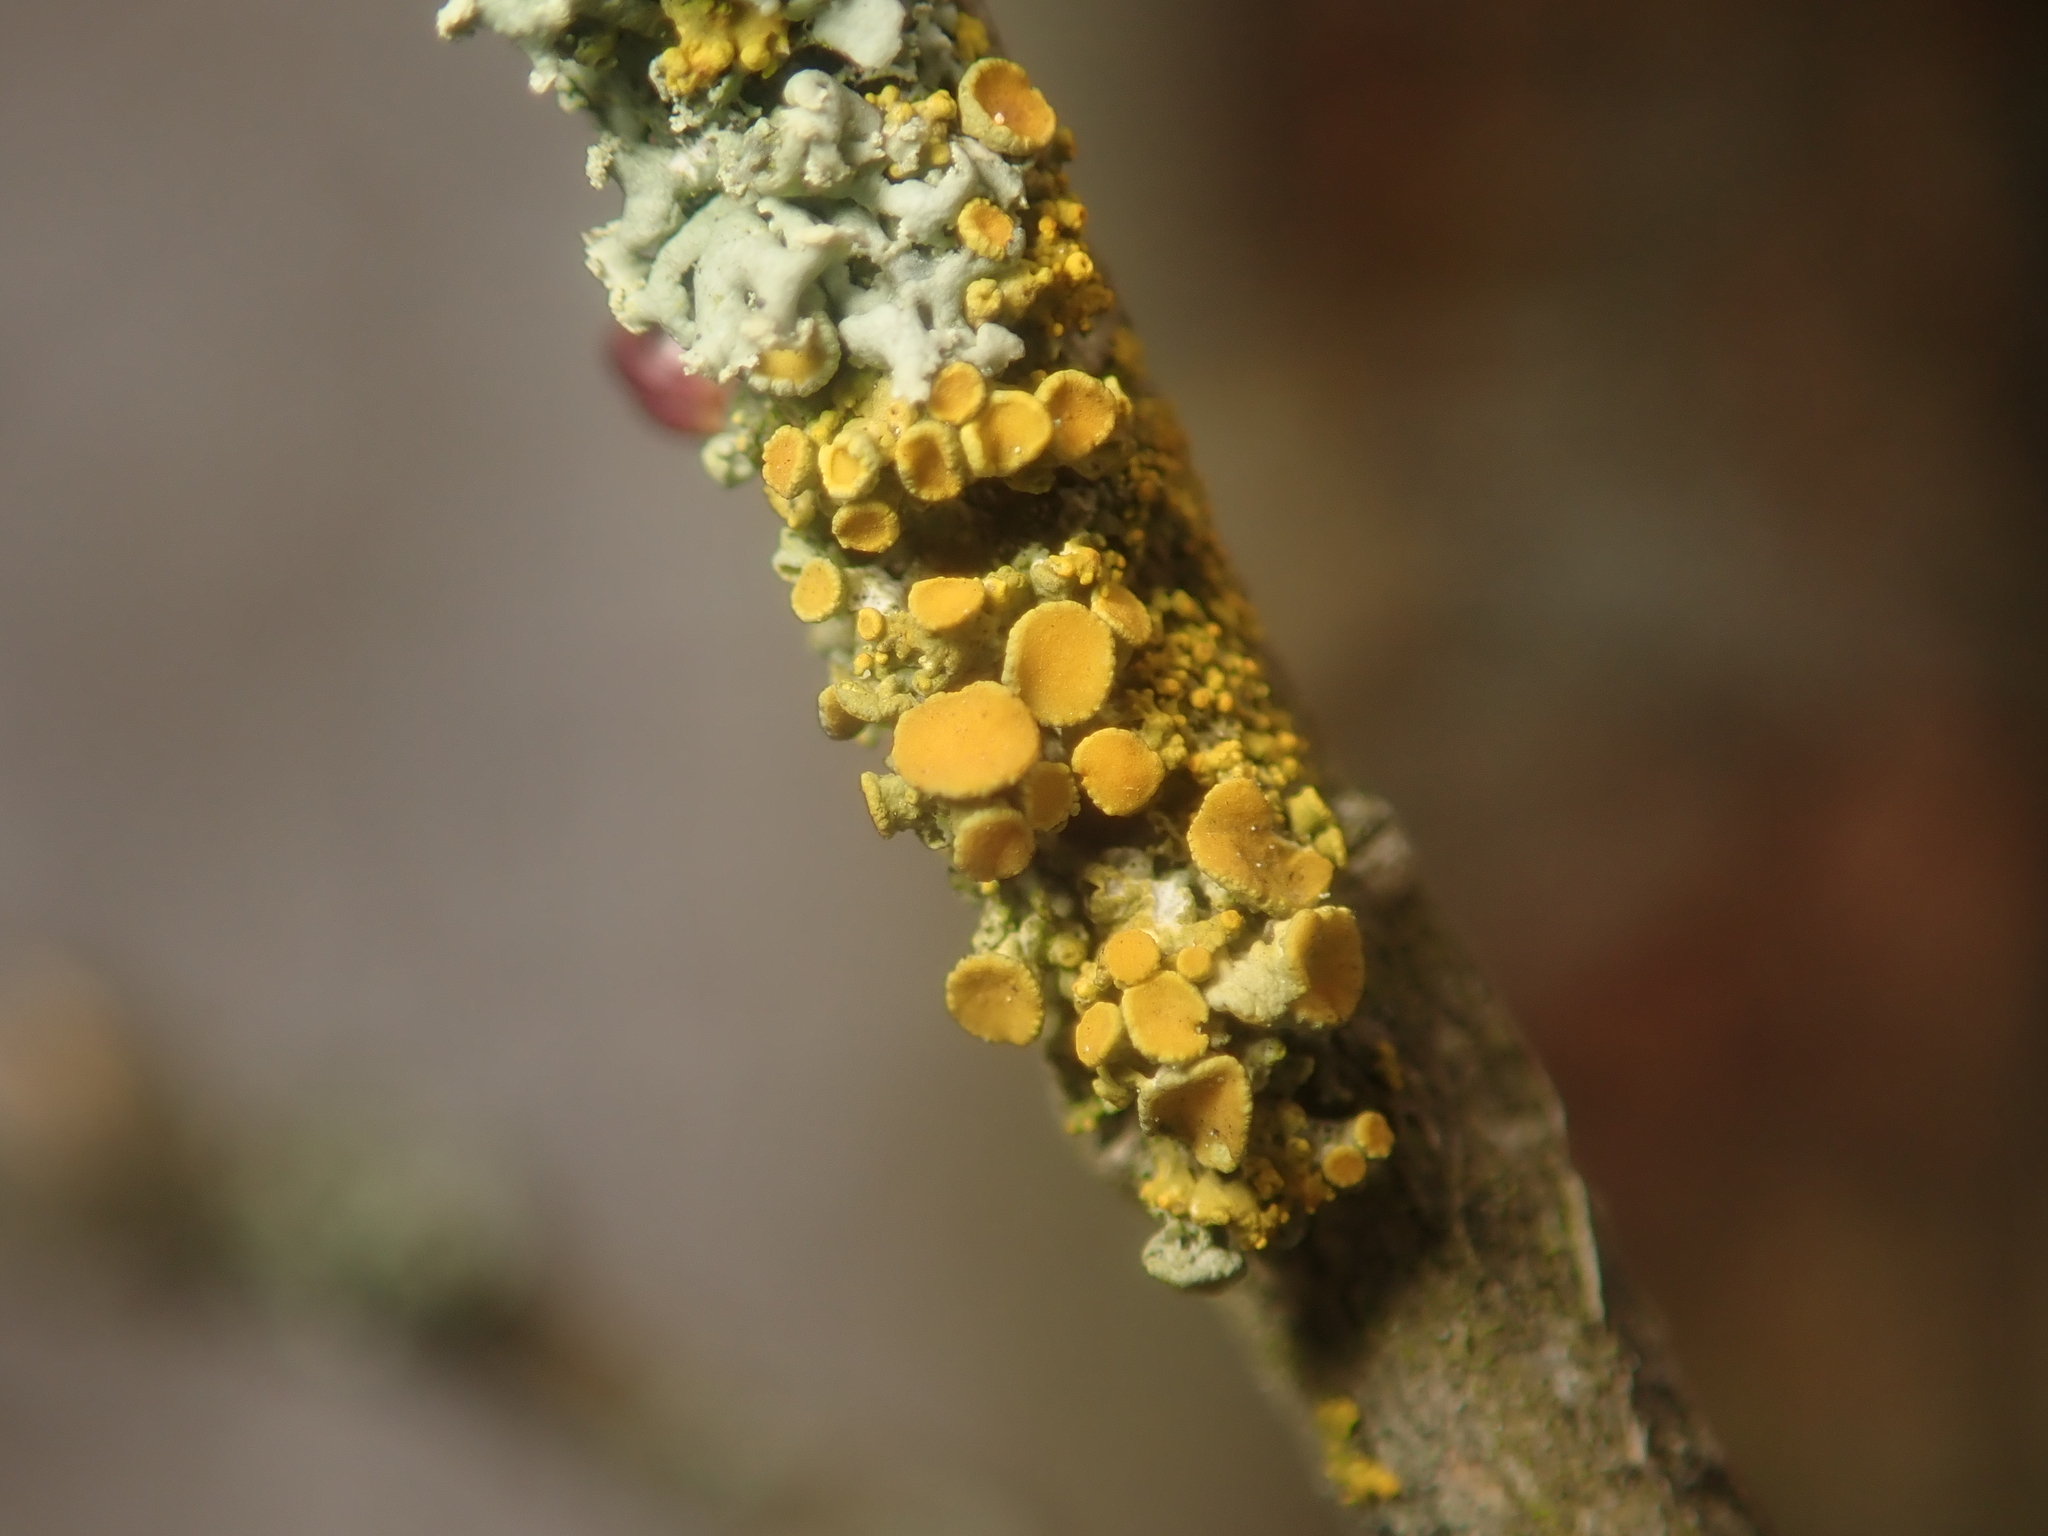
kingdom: Fungi
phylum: Ascomycota
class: Lecanoromycetes
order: Teloschistales
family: Teloschistaceae
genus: Polycauliona
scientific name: Polycauliona polycarpa
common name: Pin-cushion sunburst lichen
